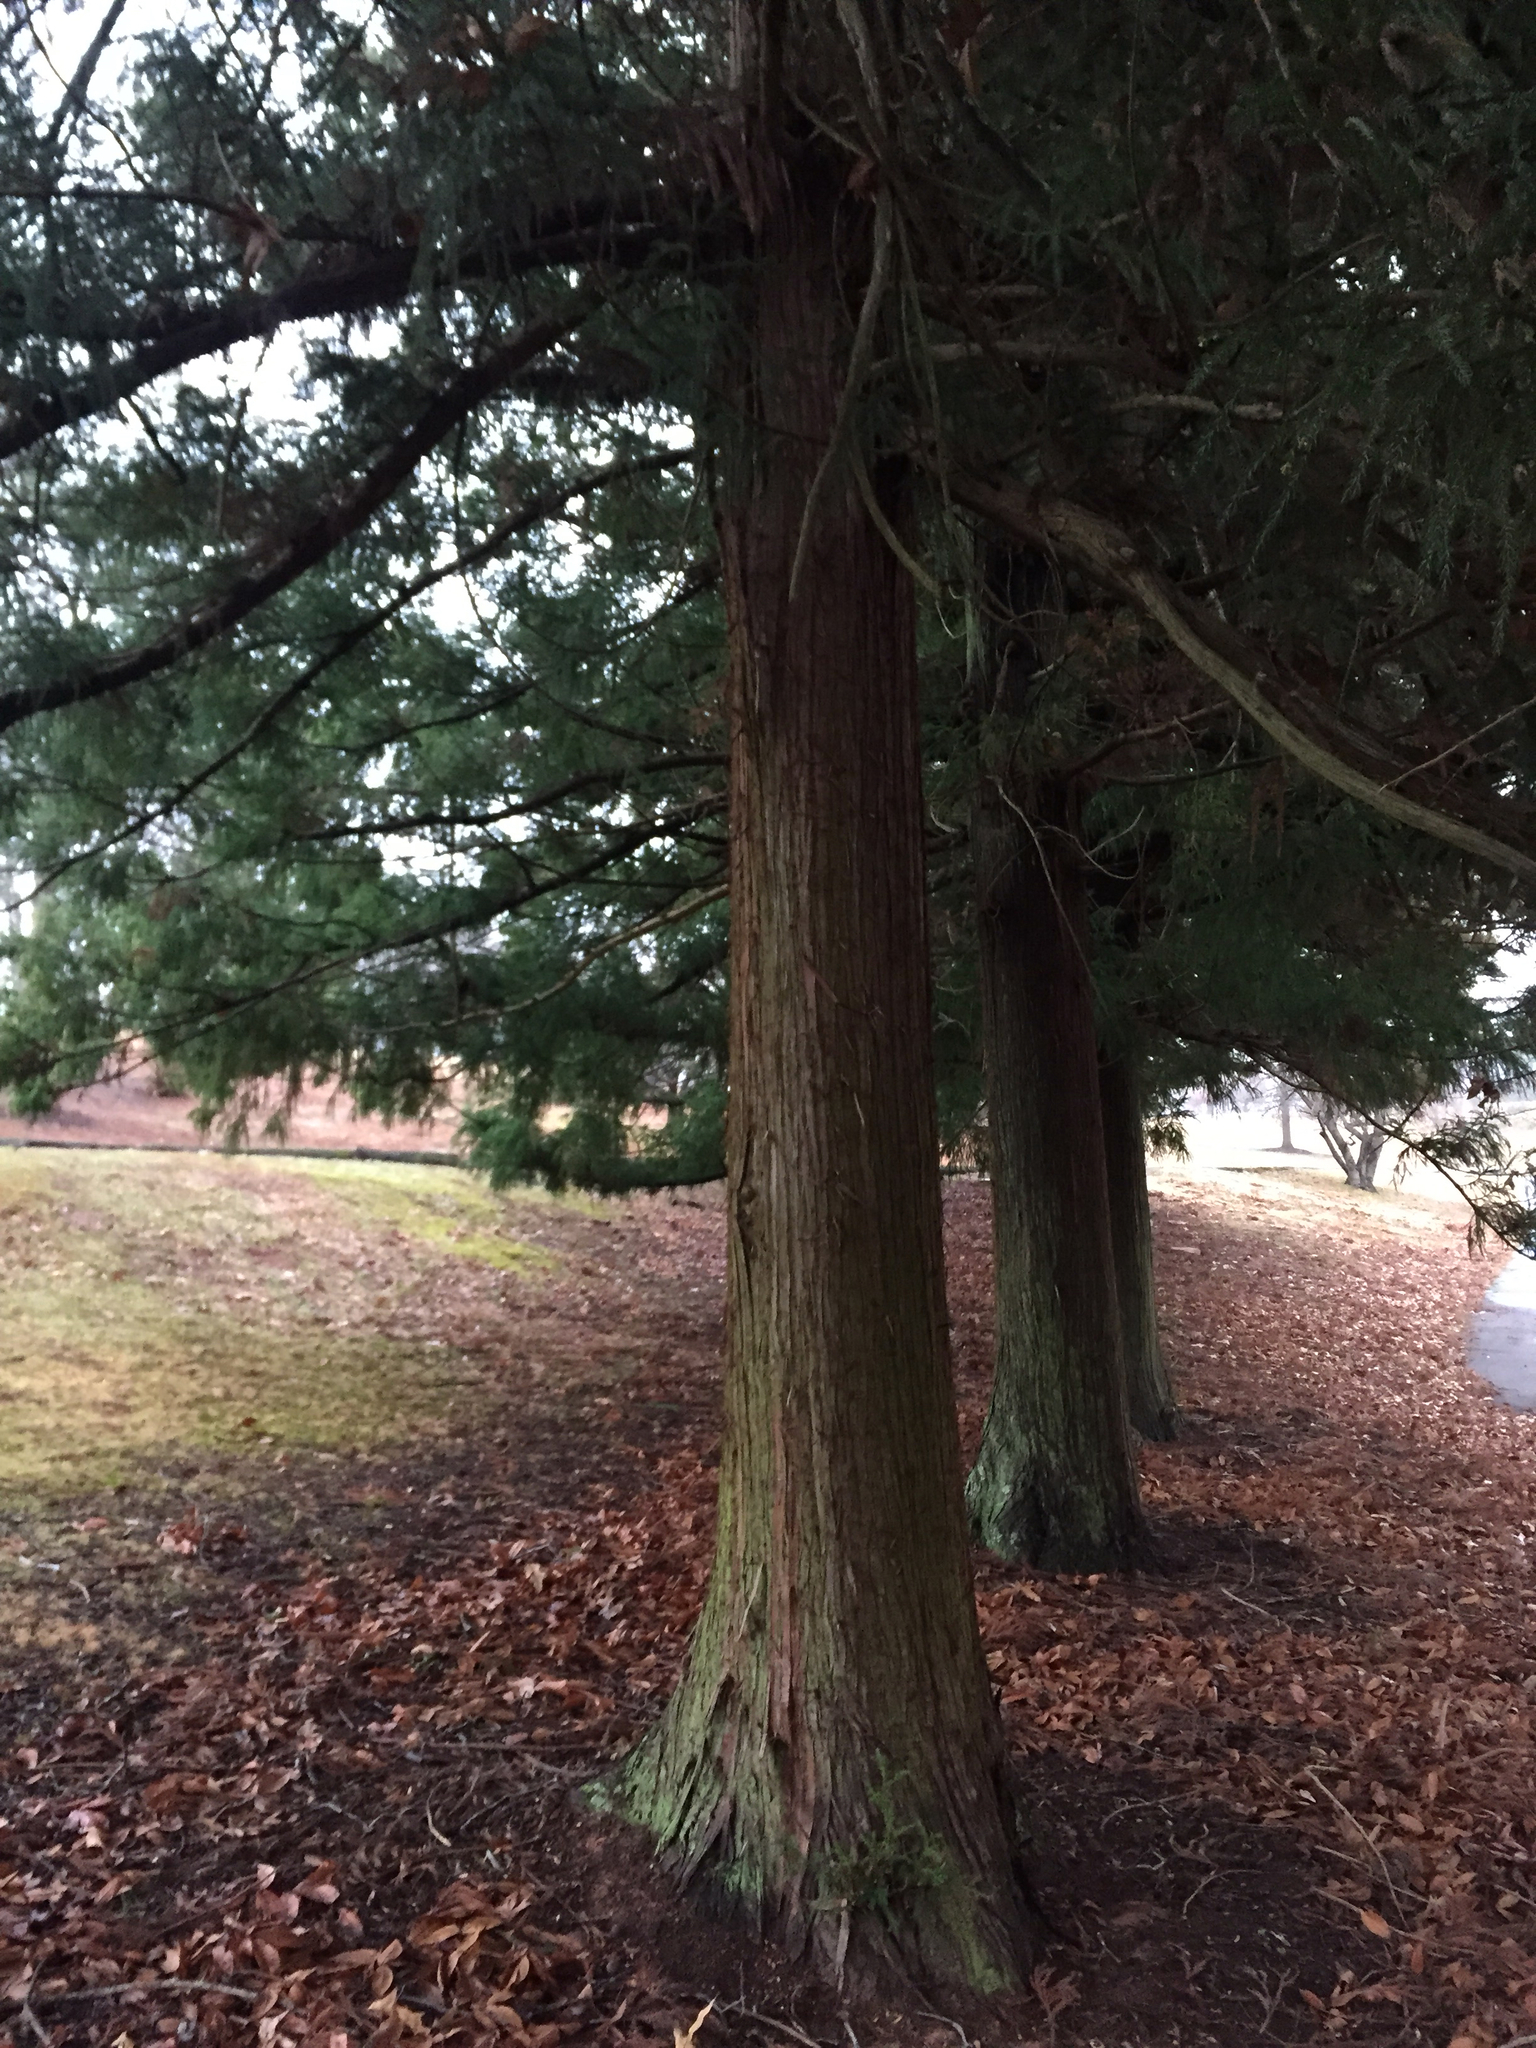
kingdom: Plantae
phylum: Tracheophyta
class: Pinopsida
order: Pinales
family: Cupressaceae
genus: Juniperus
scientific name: Juniperus virginiana
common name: Red juniper
